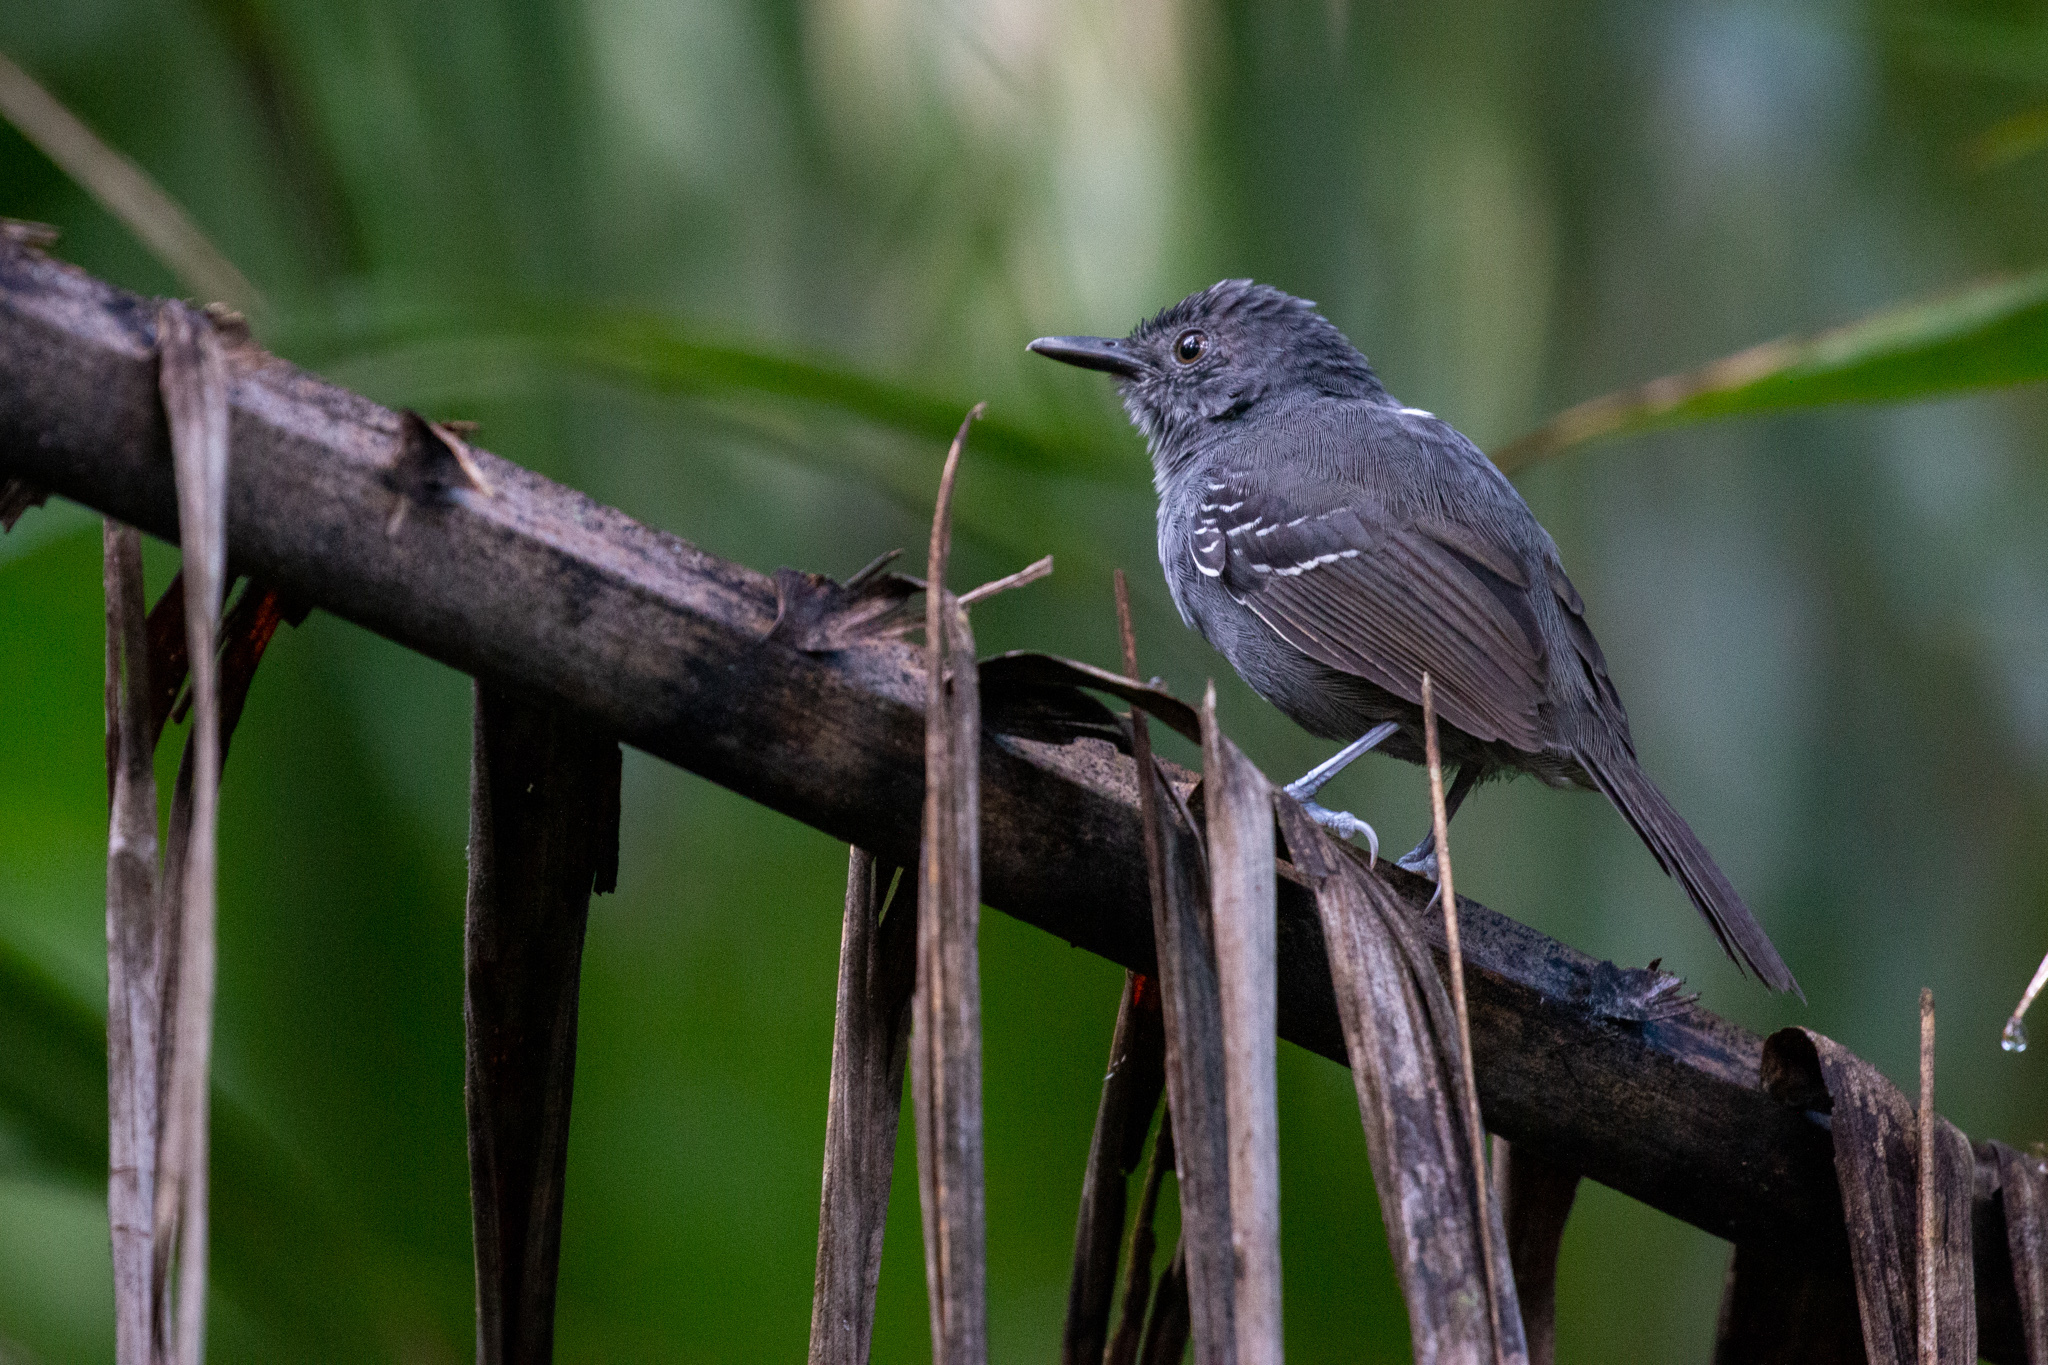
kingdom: Animalia
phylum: Chordata
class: Aves
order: Passeriformes
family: Thamnophilidae
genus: Cercomacra
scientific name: Cercomacra laeta
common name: Willis's antbird
